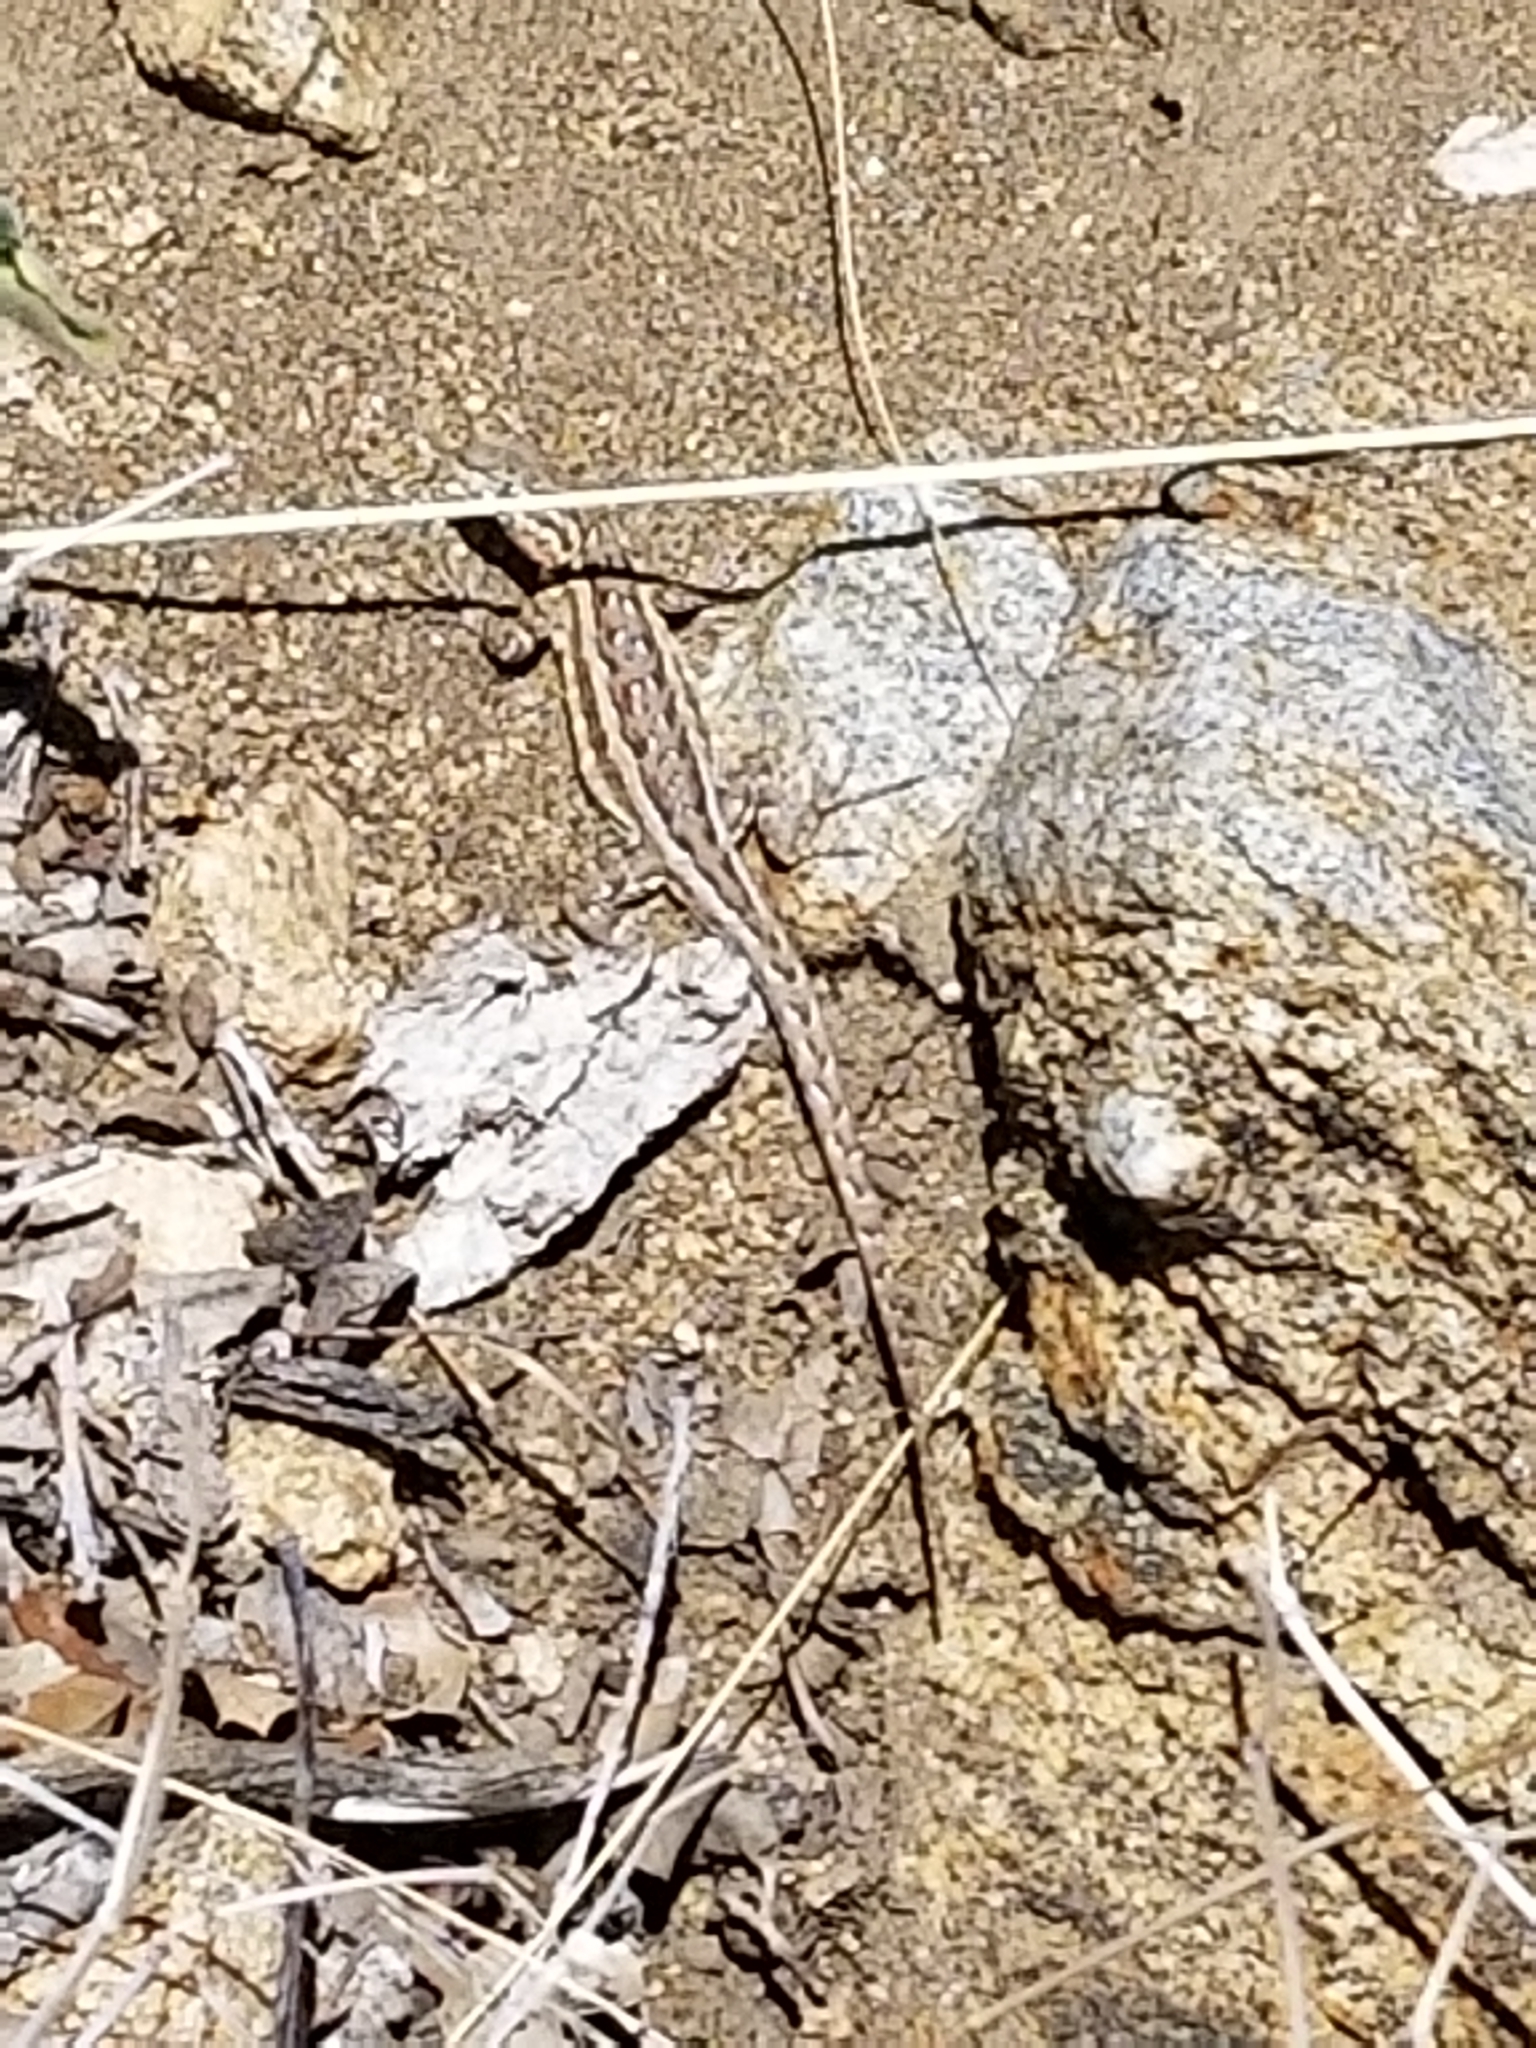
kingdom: Animalia
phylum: Chordata
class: Squamata
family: Phrynosomatidae
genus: Uta
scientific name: Uta stansburiana
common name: Side-blotched lizard
